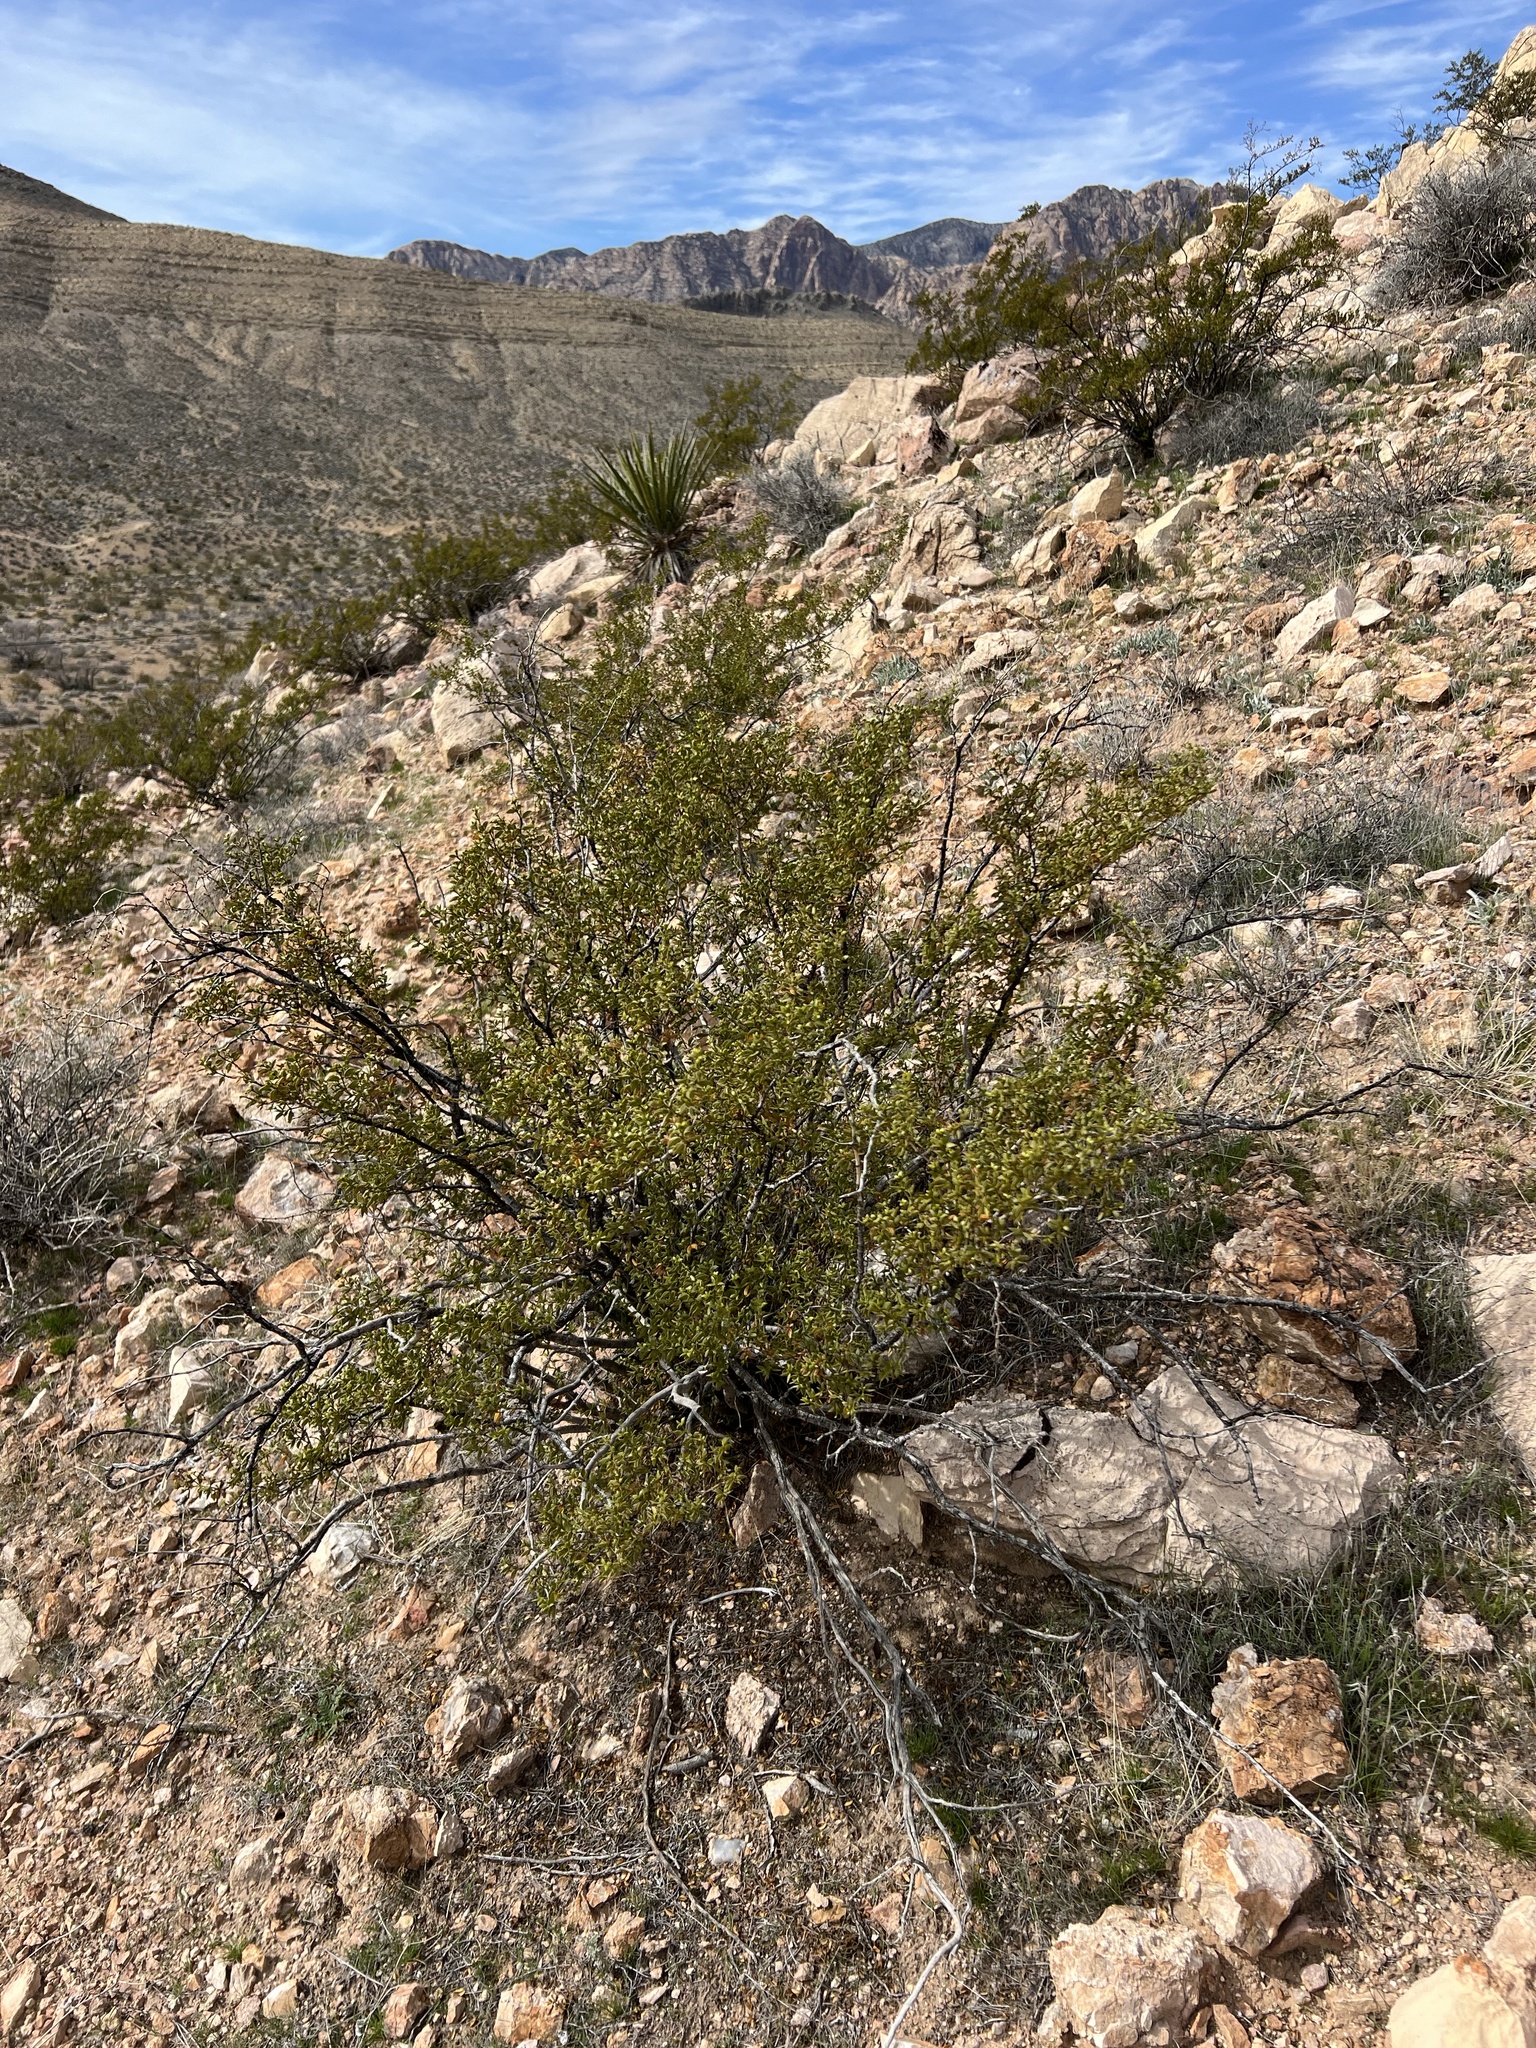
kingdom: Plantae
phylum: Tracheophyta
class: Magnoliopsida
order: Zygophyllales
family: Zygophyllaceae
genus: Larrea
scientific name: Larrea tridentata
